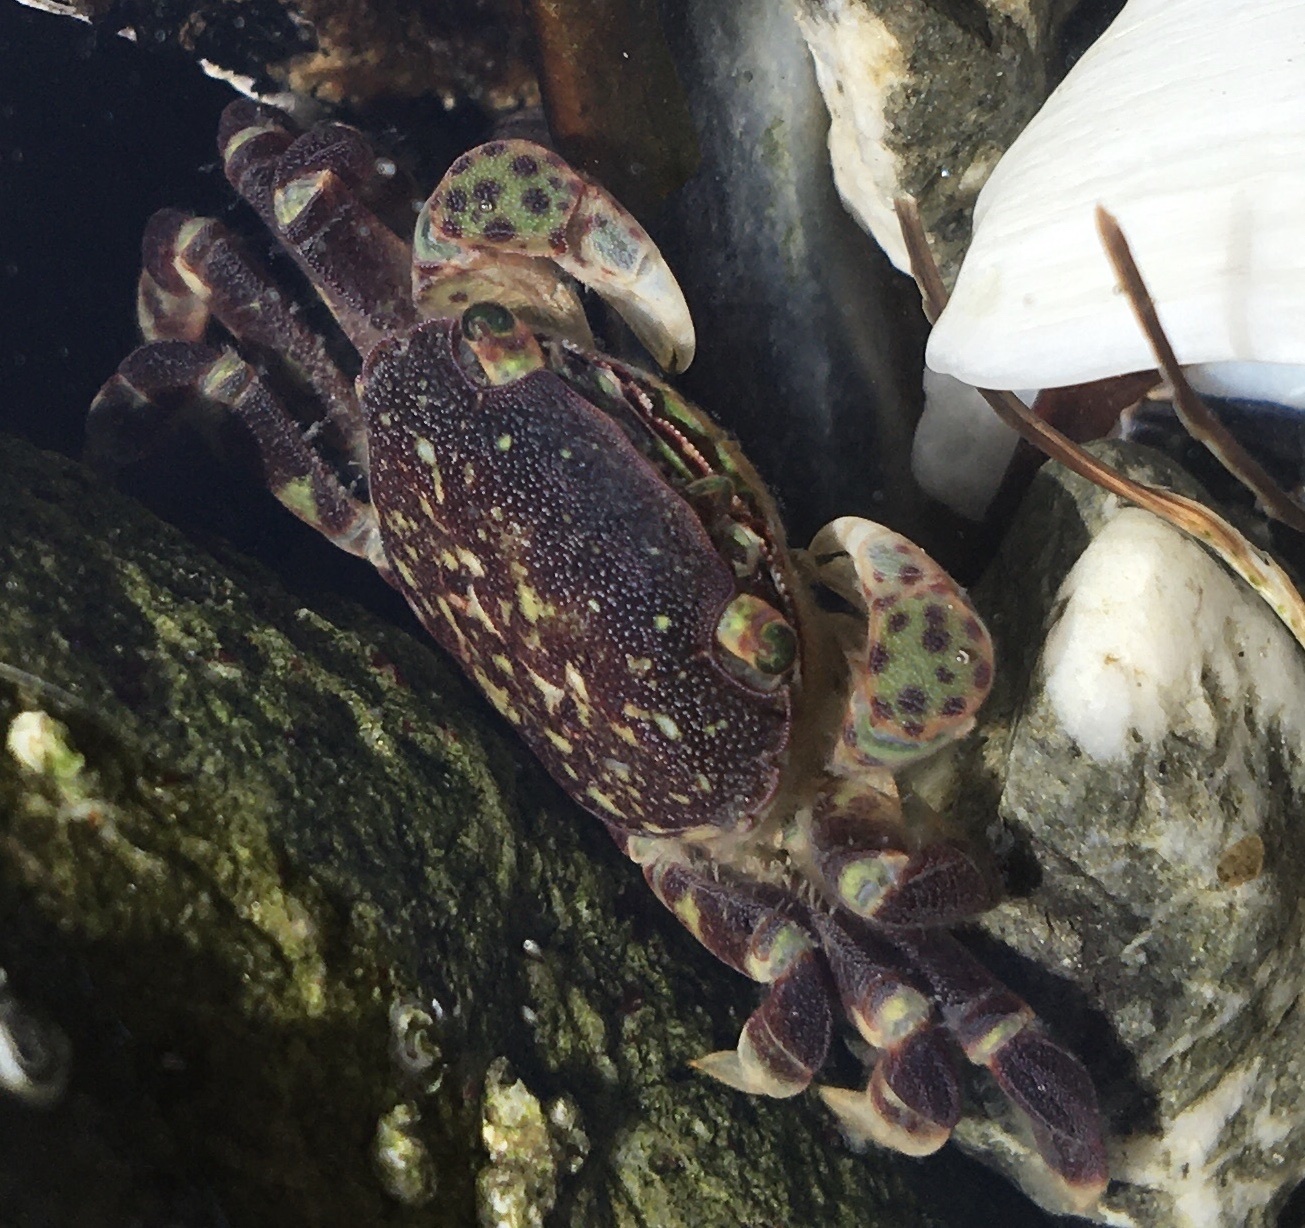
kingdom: Animalia
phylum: Arthropoda
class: Malacostraca
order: Decapoda
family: Varunidae
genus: Hemigrapsus
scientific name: Hemigrapsus nudus
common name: Purple shore crab
